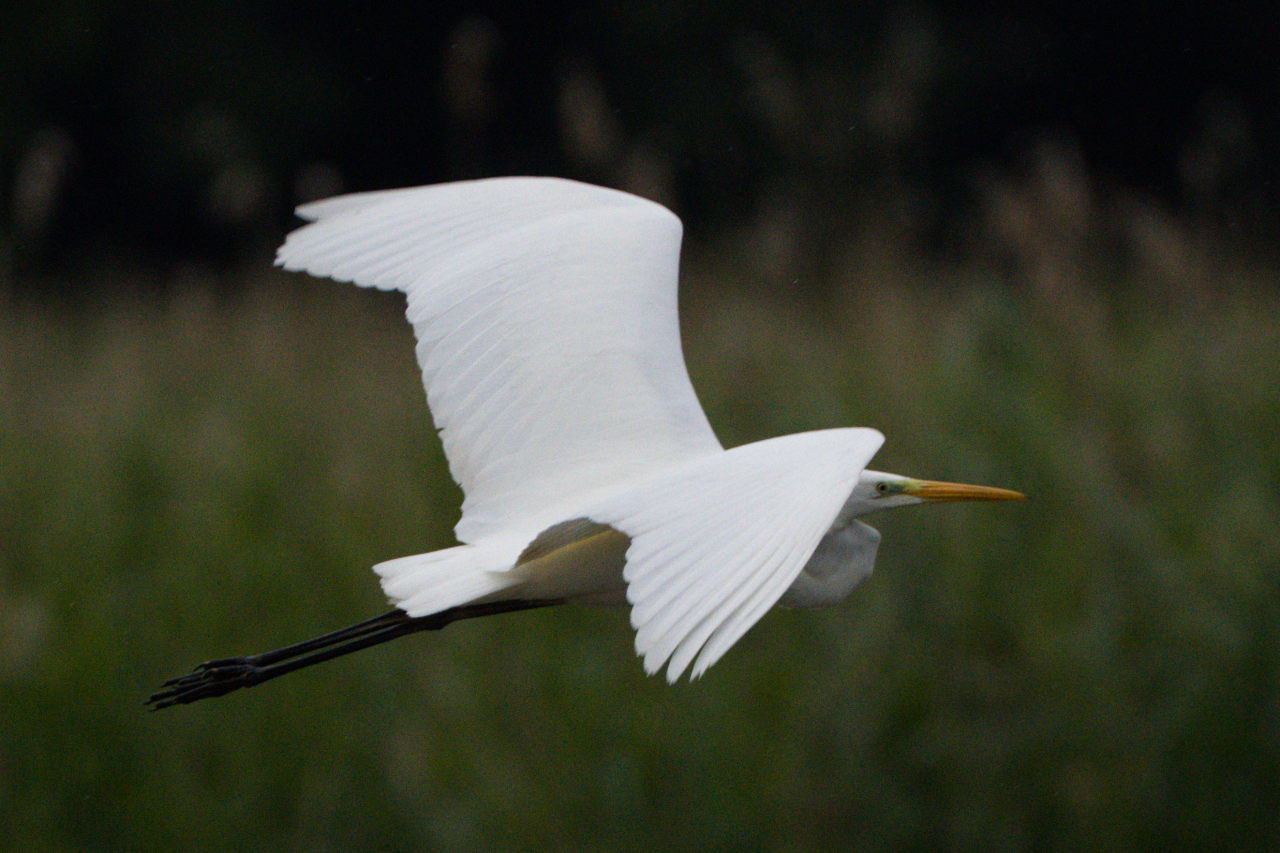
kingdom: Animalia
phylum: Chordata
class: Aves
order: Pelecaniformes
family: Ardeidae
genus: Ardea
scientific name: Ardea alba
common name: Great egret
